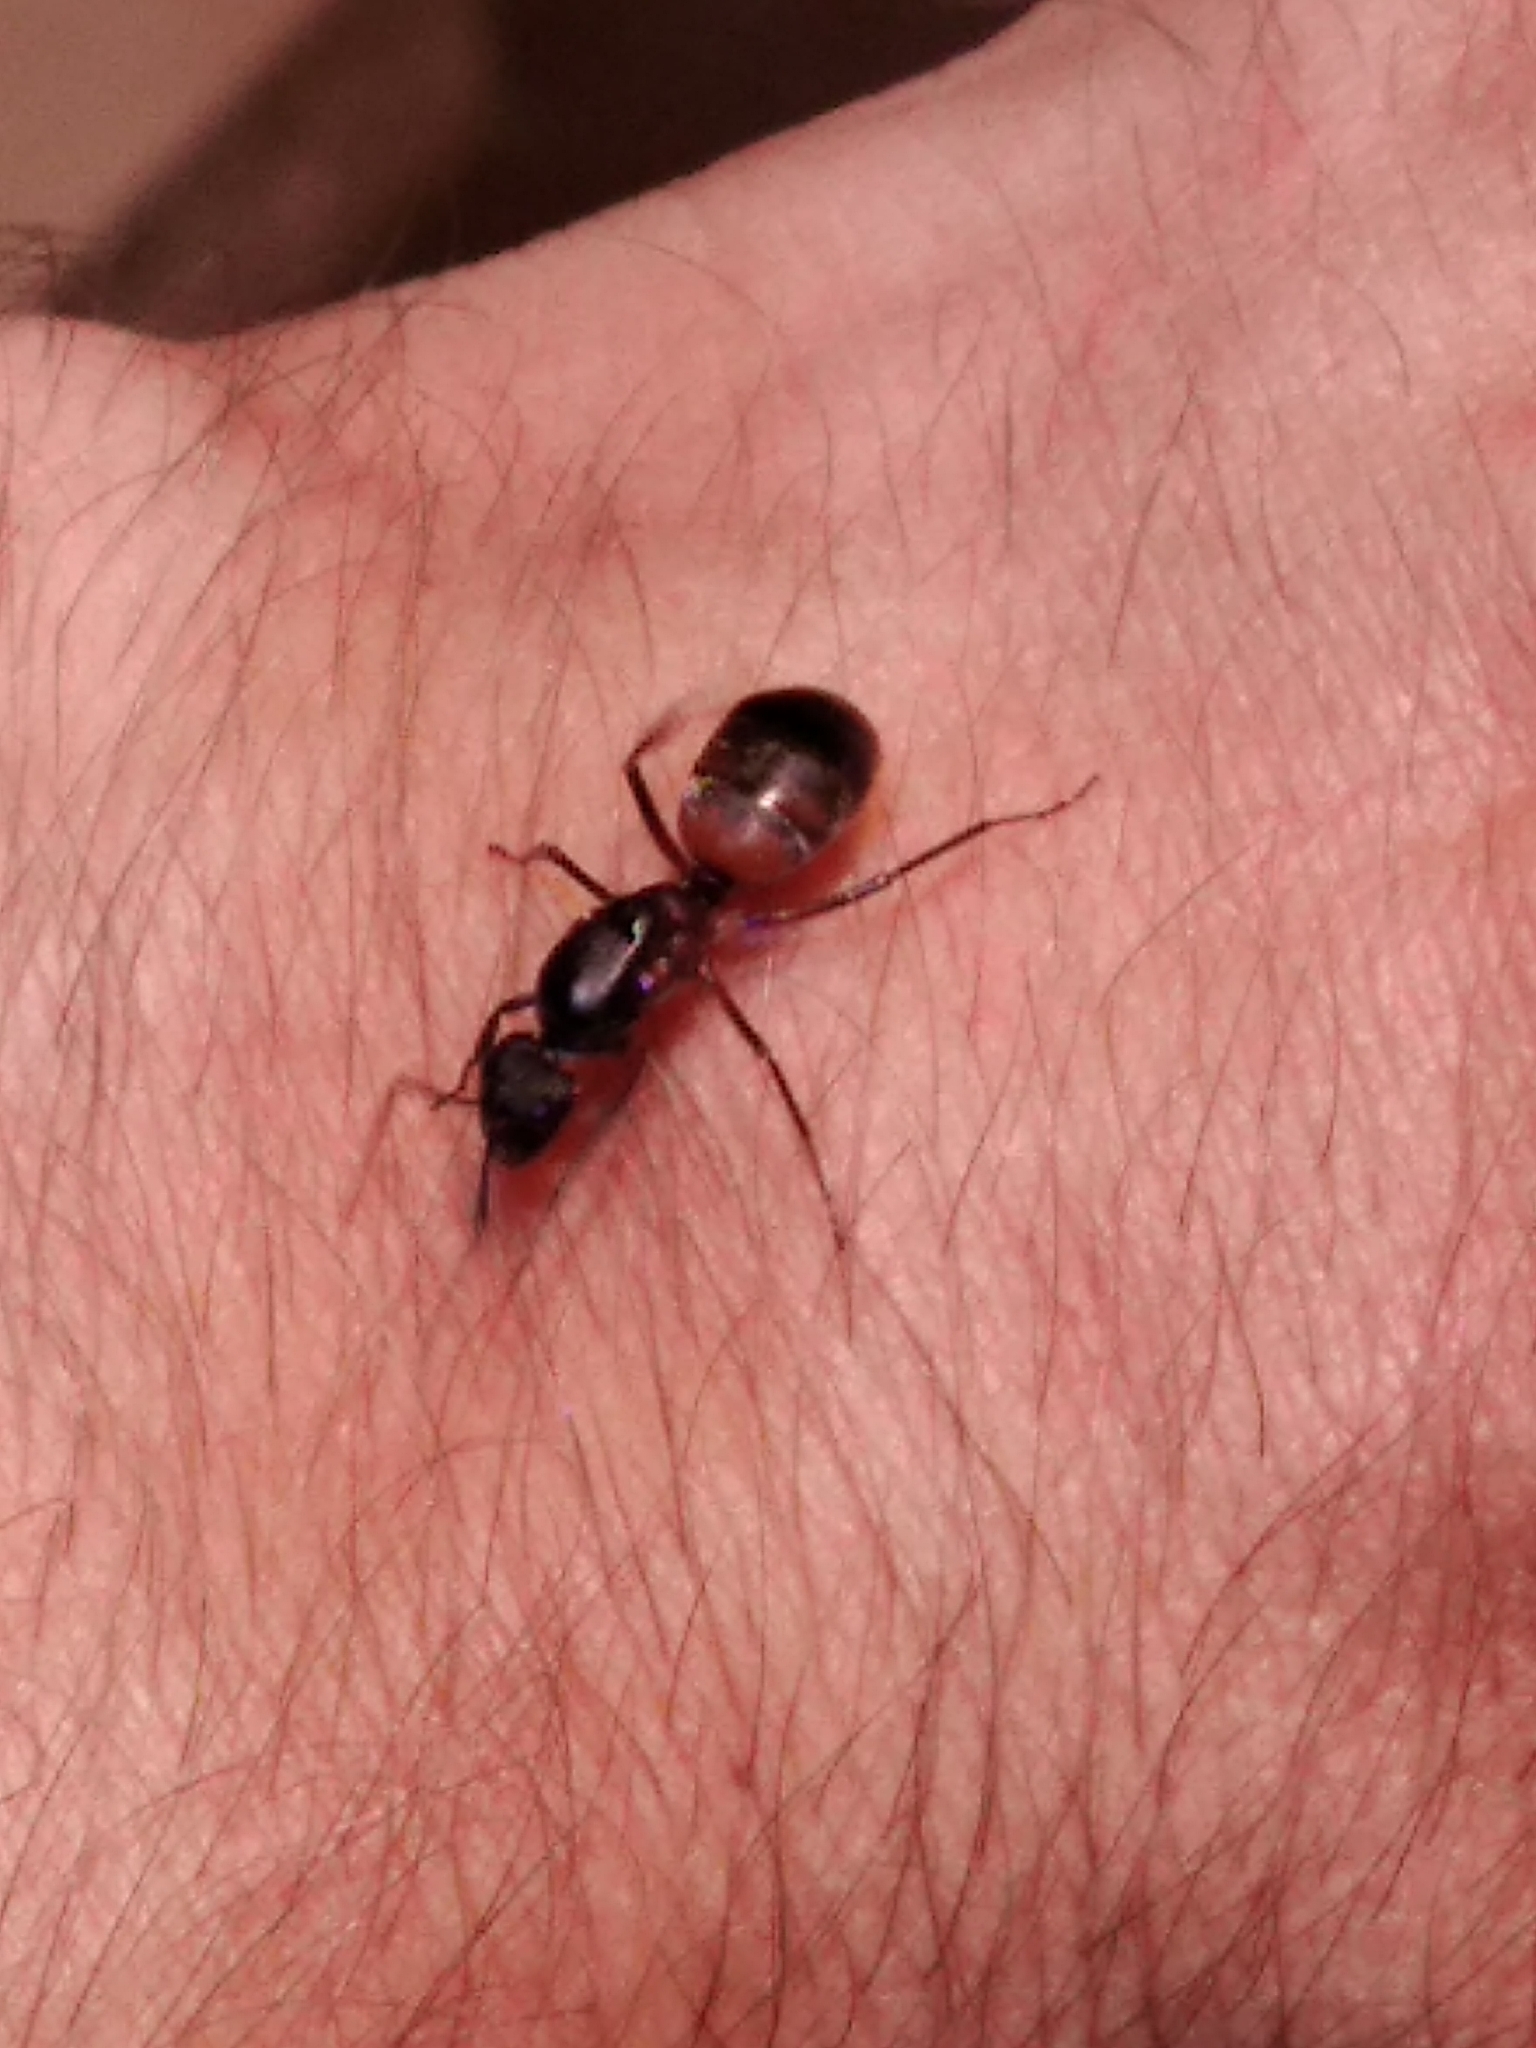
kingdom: Animalia
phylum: Arthropoda
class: Insecta
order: Hymenoptera
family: Formicidae
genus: Camponotus
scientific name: Camponotus cruentatus
